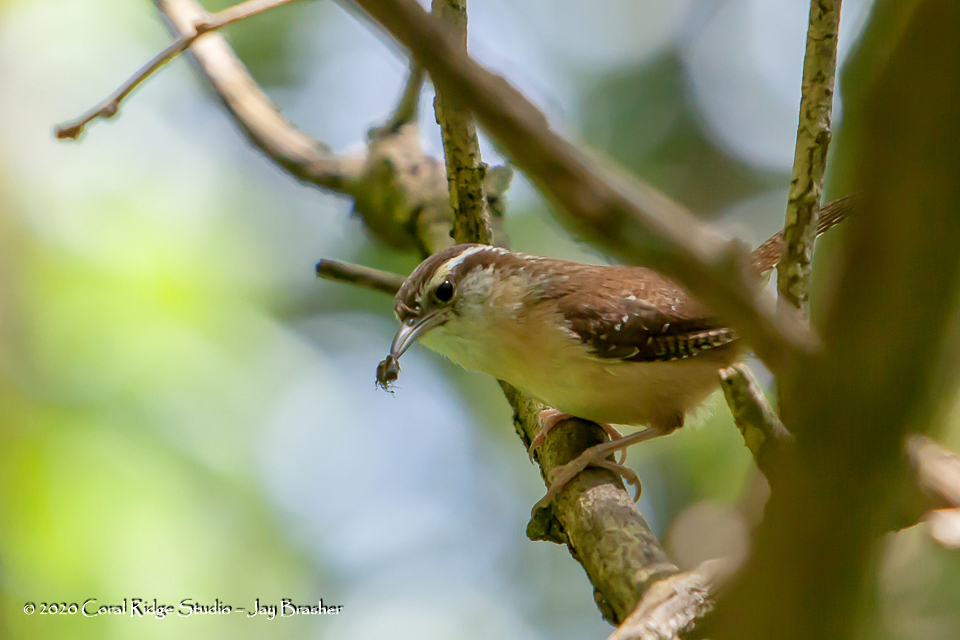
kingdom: Animalia
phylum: Chordata
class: Aves
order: Passeriformes
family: Troglodytidae
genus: Thryothorus
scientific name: Thryothorus ludovicianus
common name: Carolina wren
